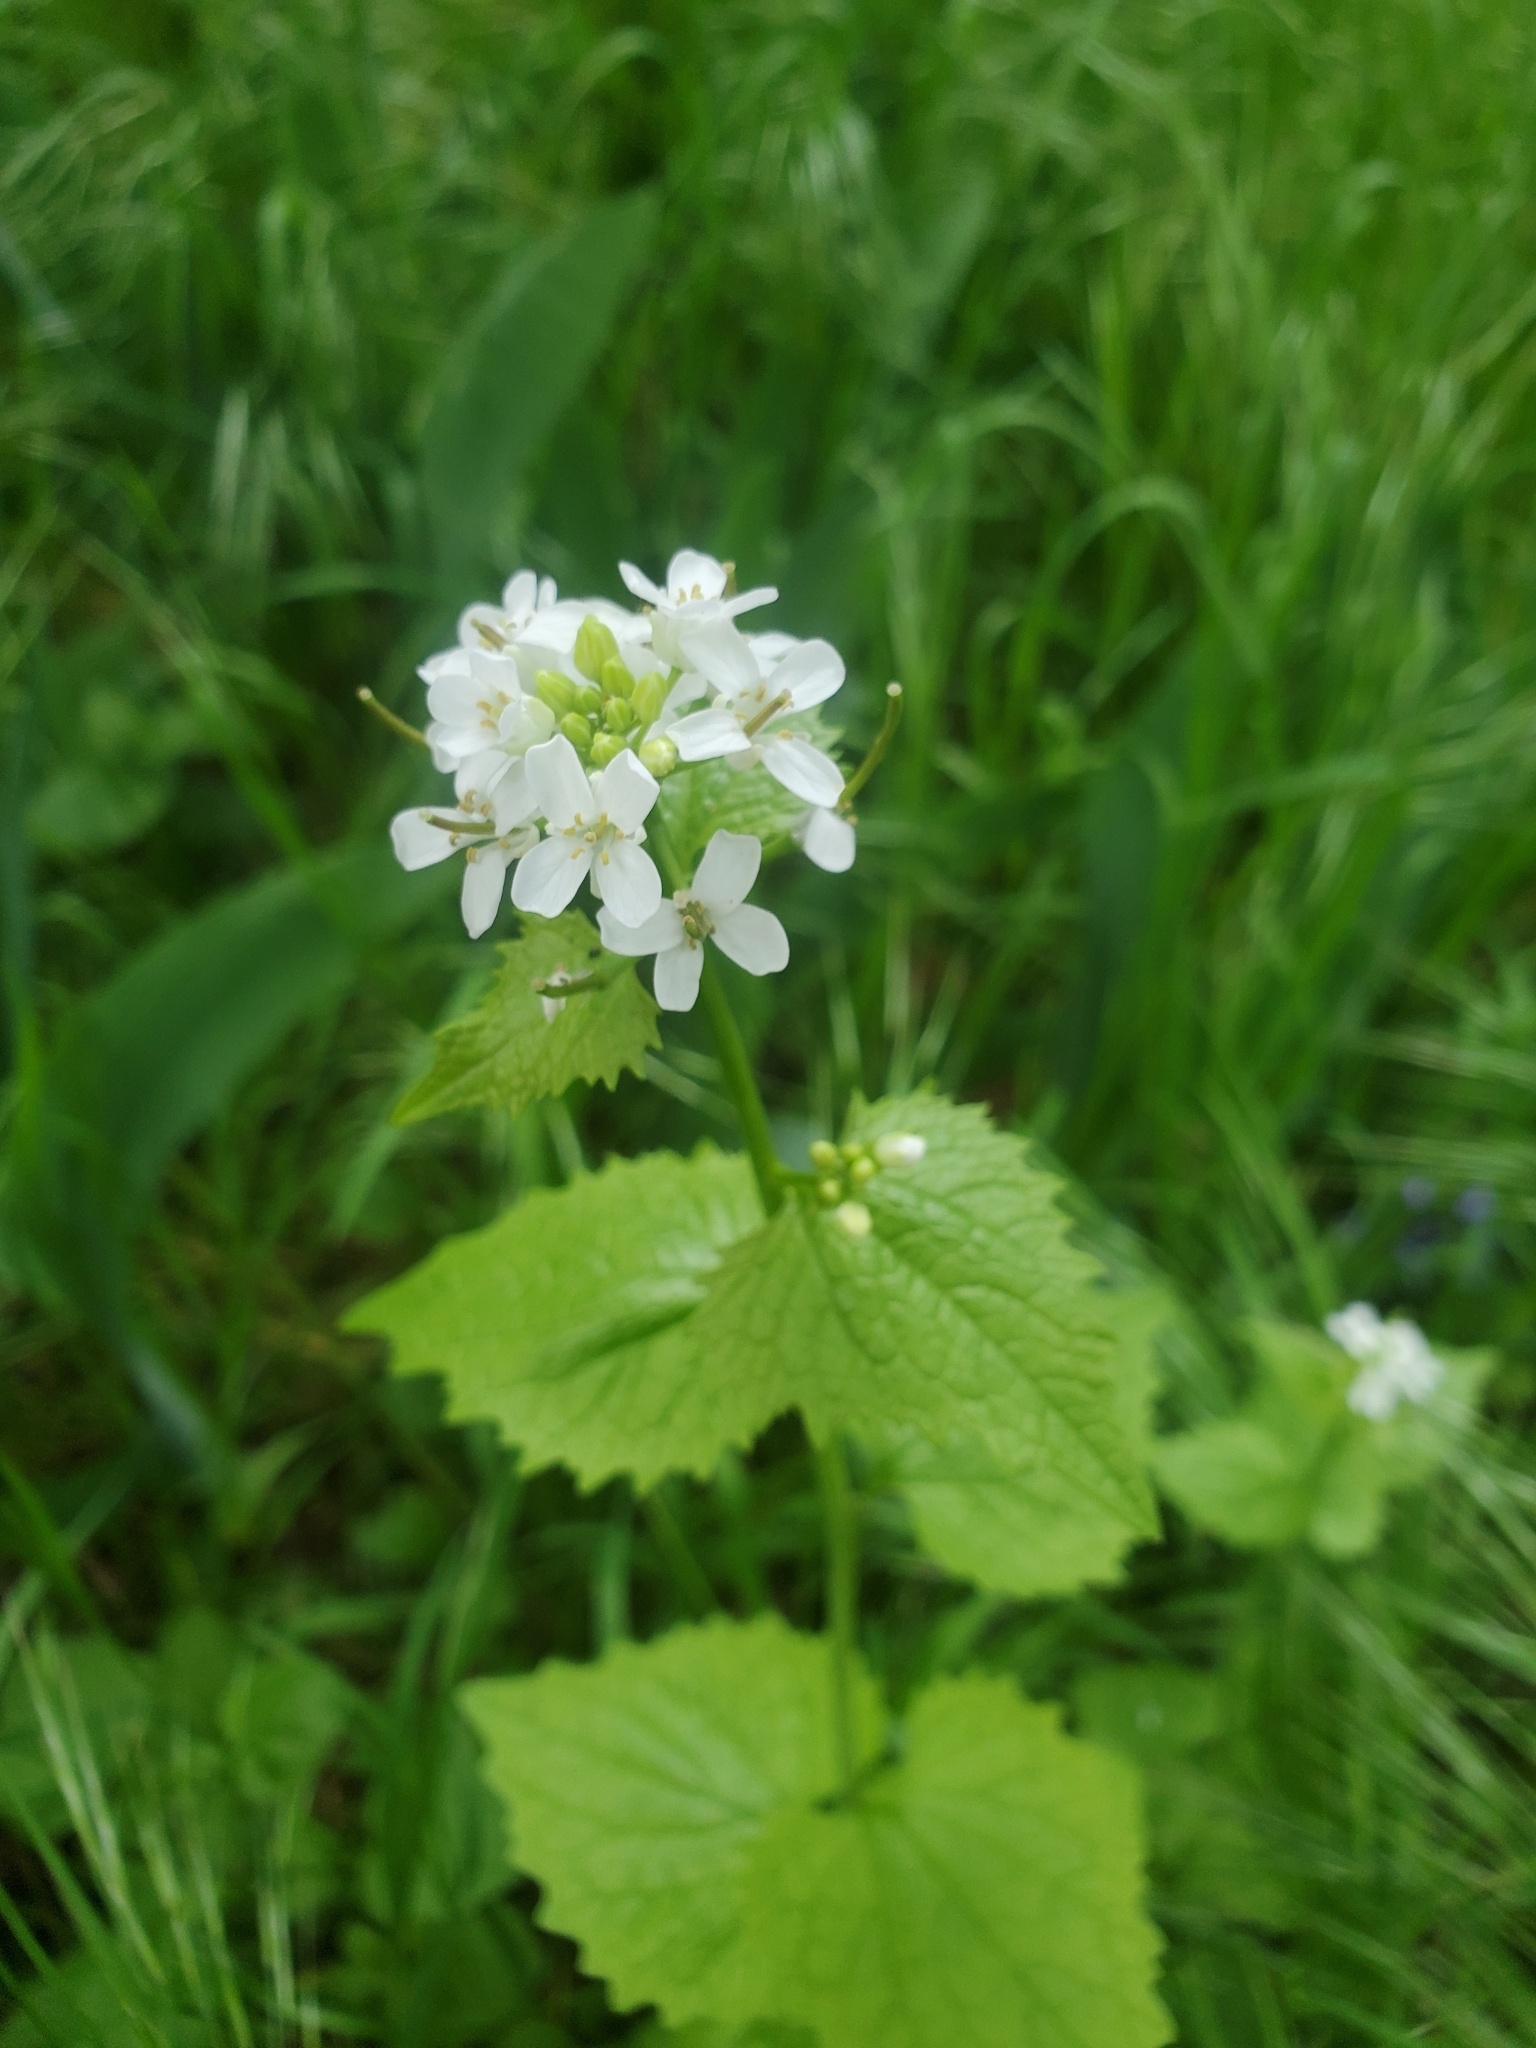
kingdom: Plantae
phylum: Tracheophyta
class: Magnoliopsida
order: Brassicales
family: Brassicaceae
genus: Alliaria
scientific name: Alliaria petiolata
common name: Garlic mustard
